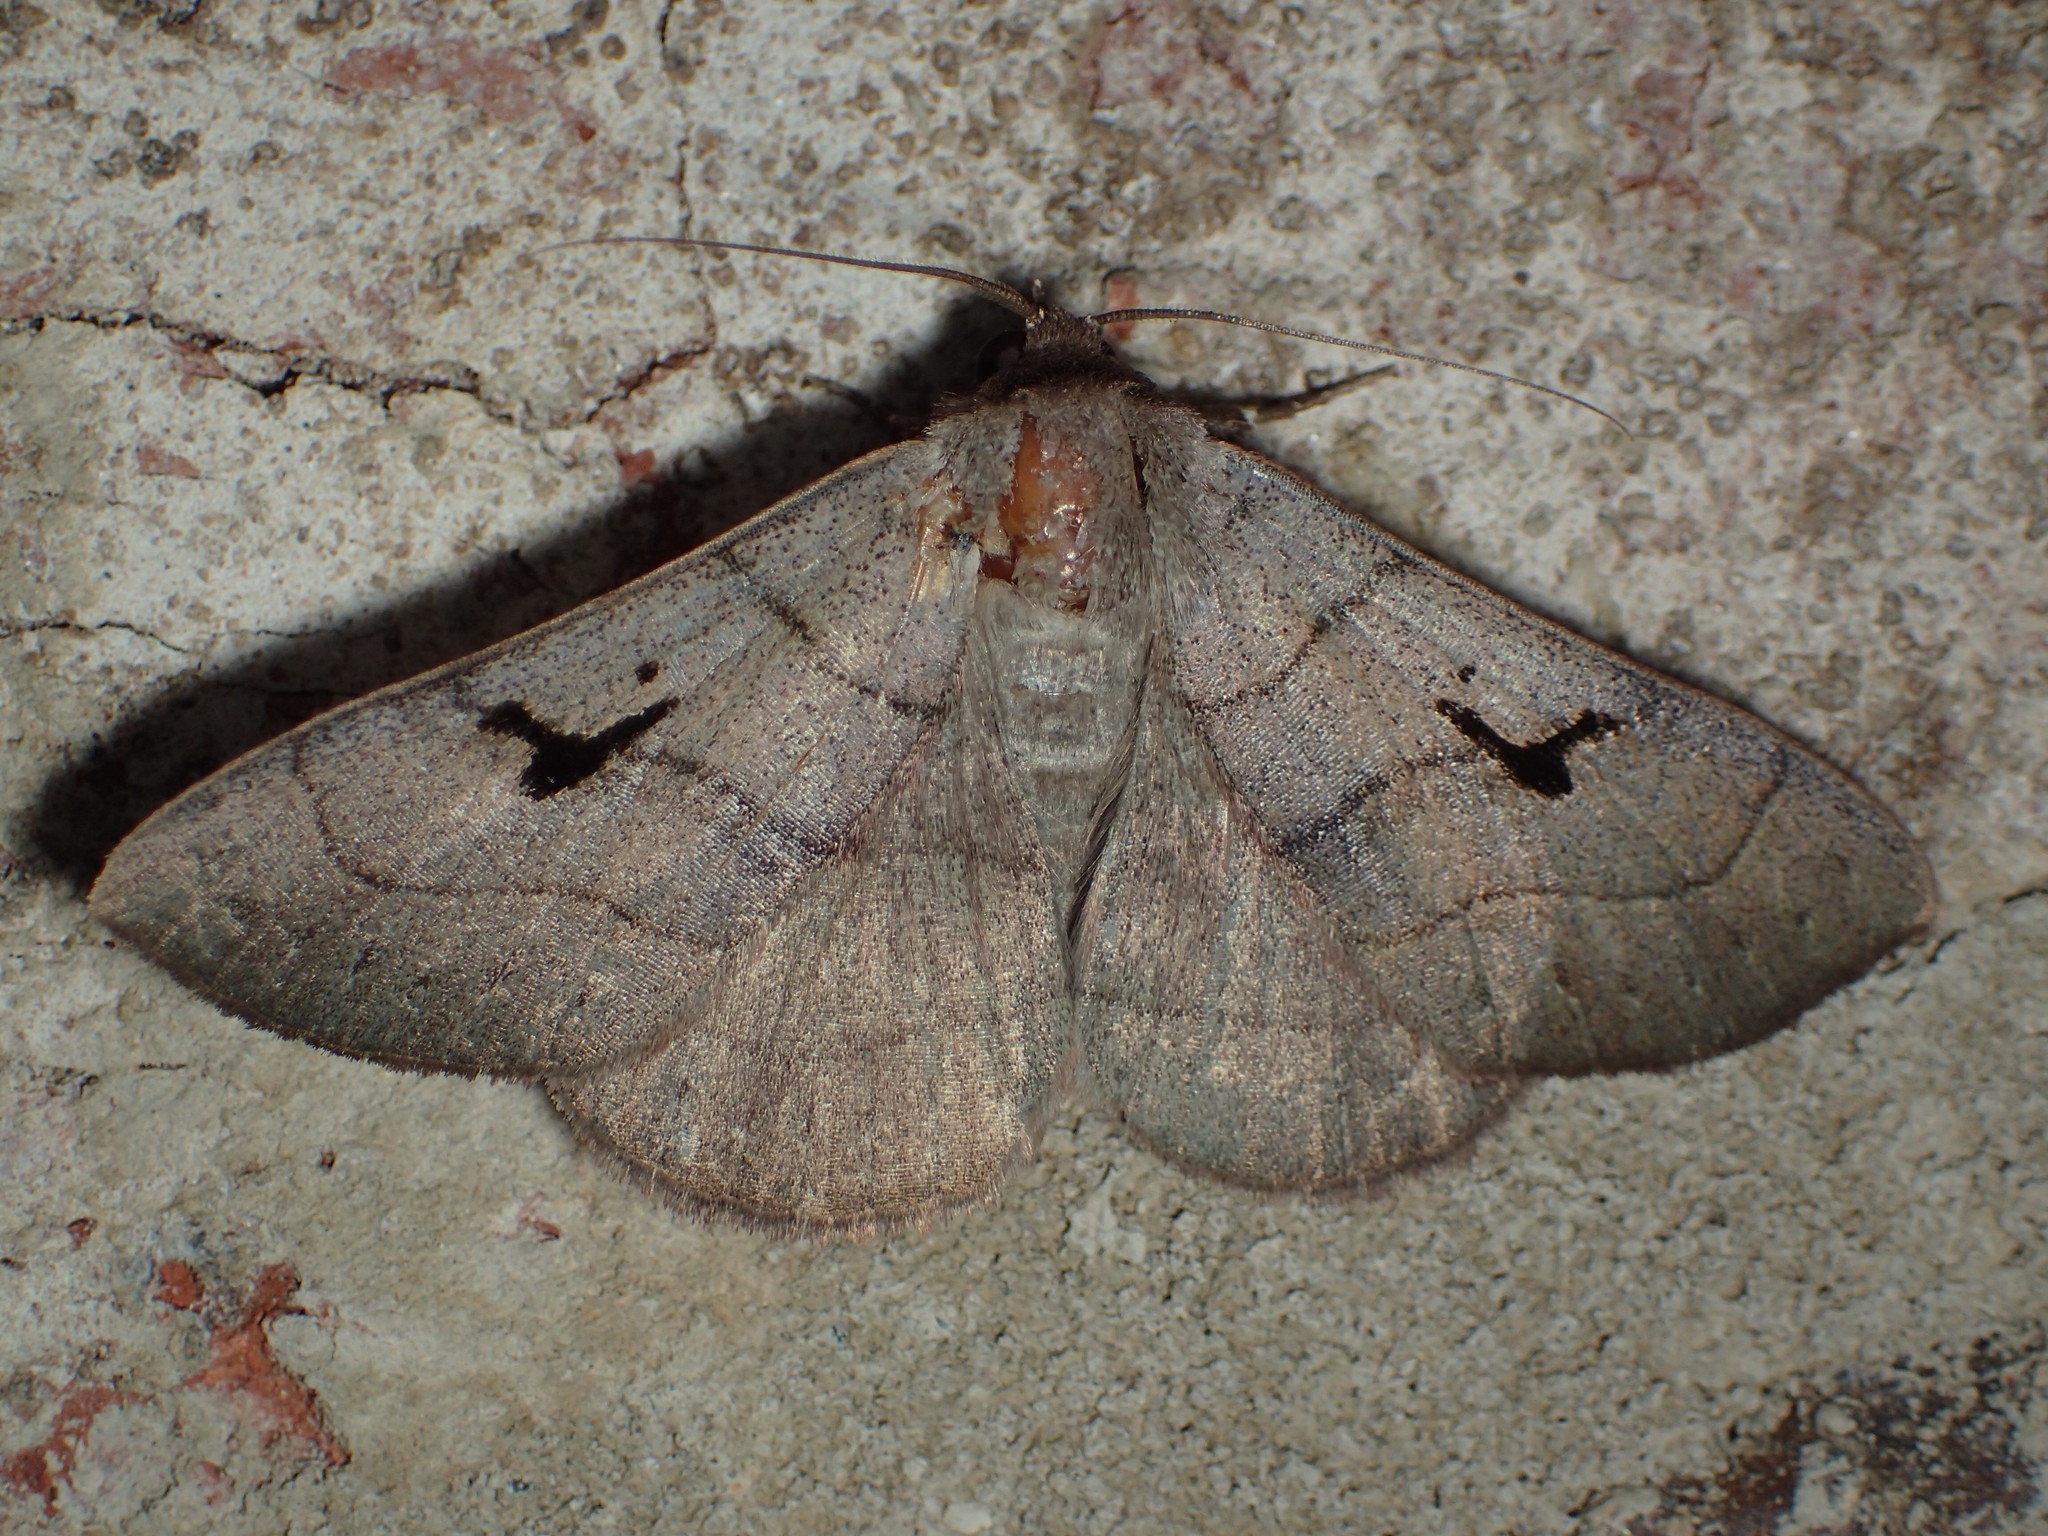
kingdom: Animalia
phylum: Arthropoda
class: Insecta
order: Lepidoptera
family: Erebidae
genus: Panopoda
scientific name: Panopoda carneicosta
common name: Brown panopoda moth
